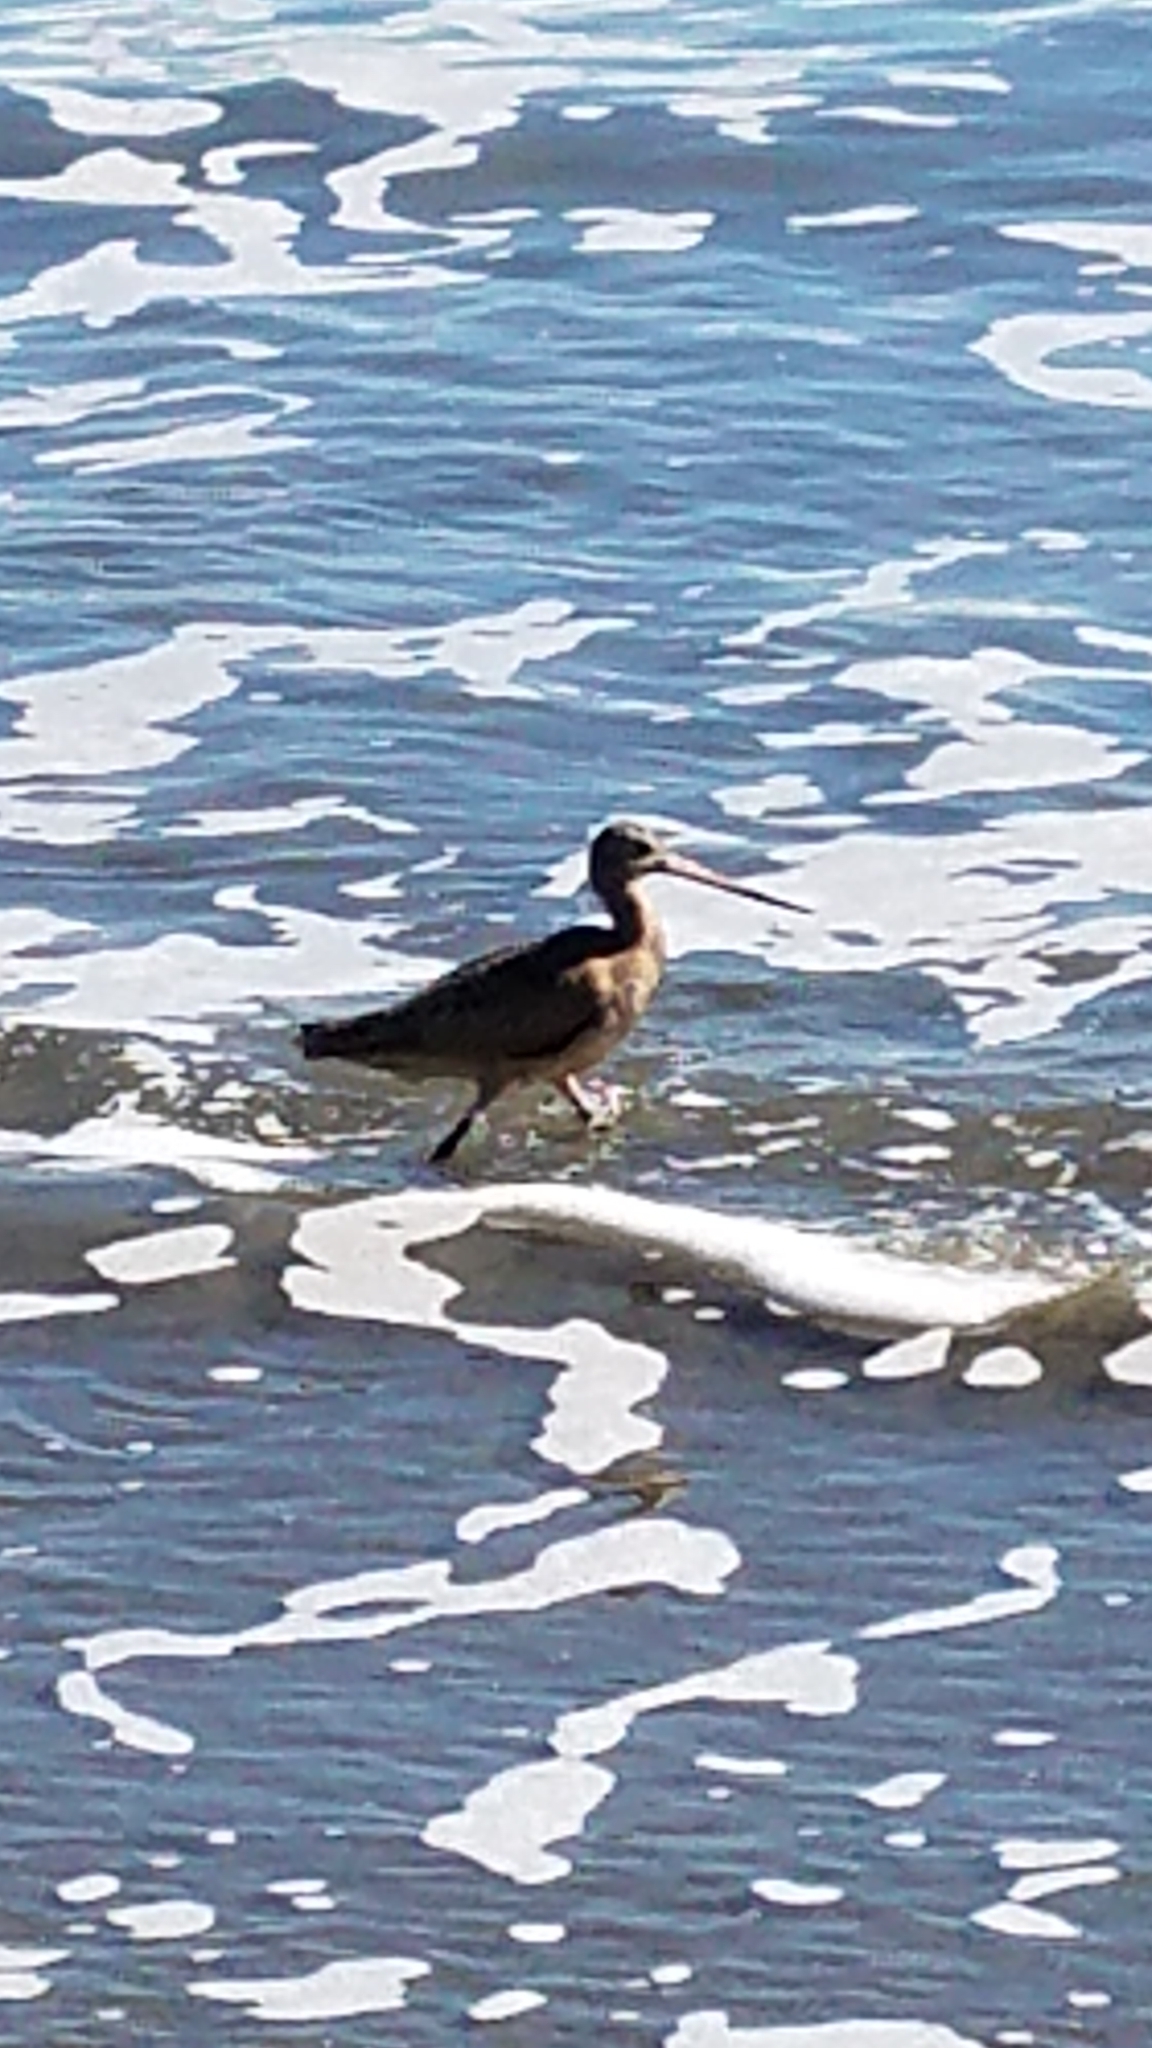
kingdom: Animalia
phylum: Chordata
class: Aves
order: Charadriiformes
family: Scolopacidae
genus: Limosa
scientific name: Limosa fedoa
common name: Marbled godwit
